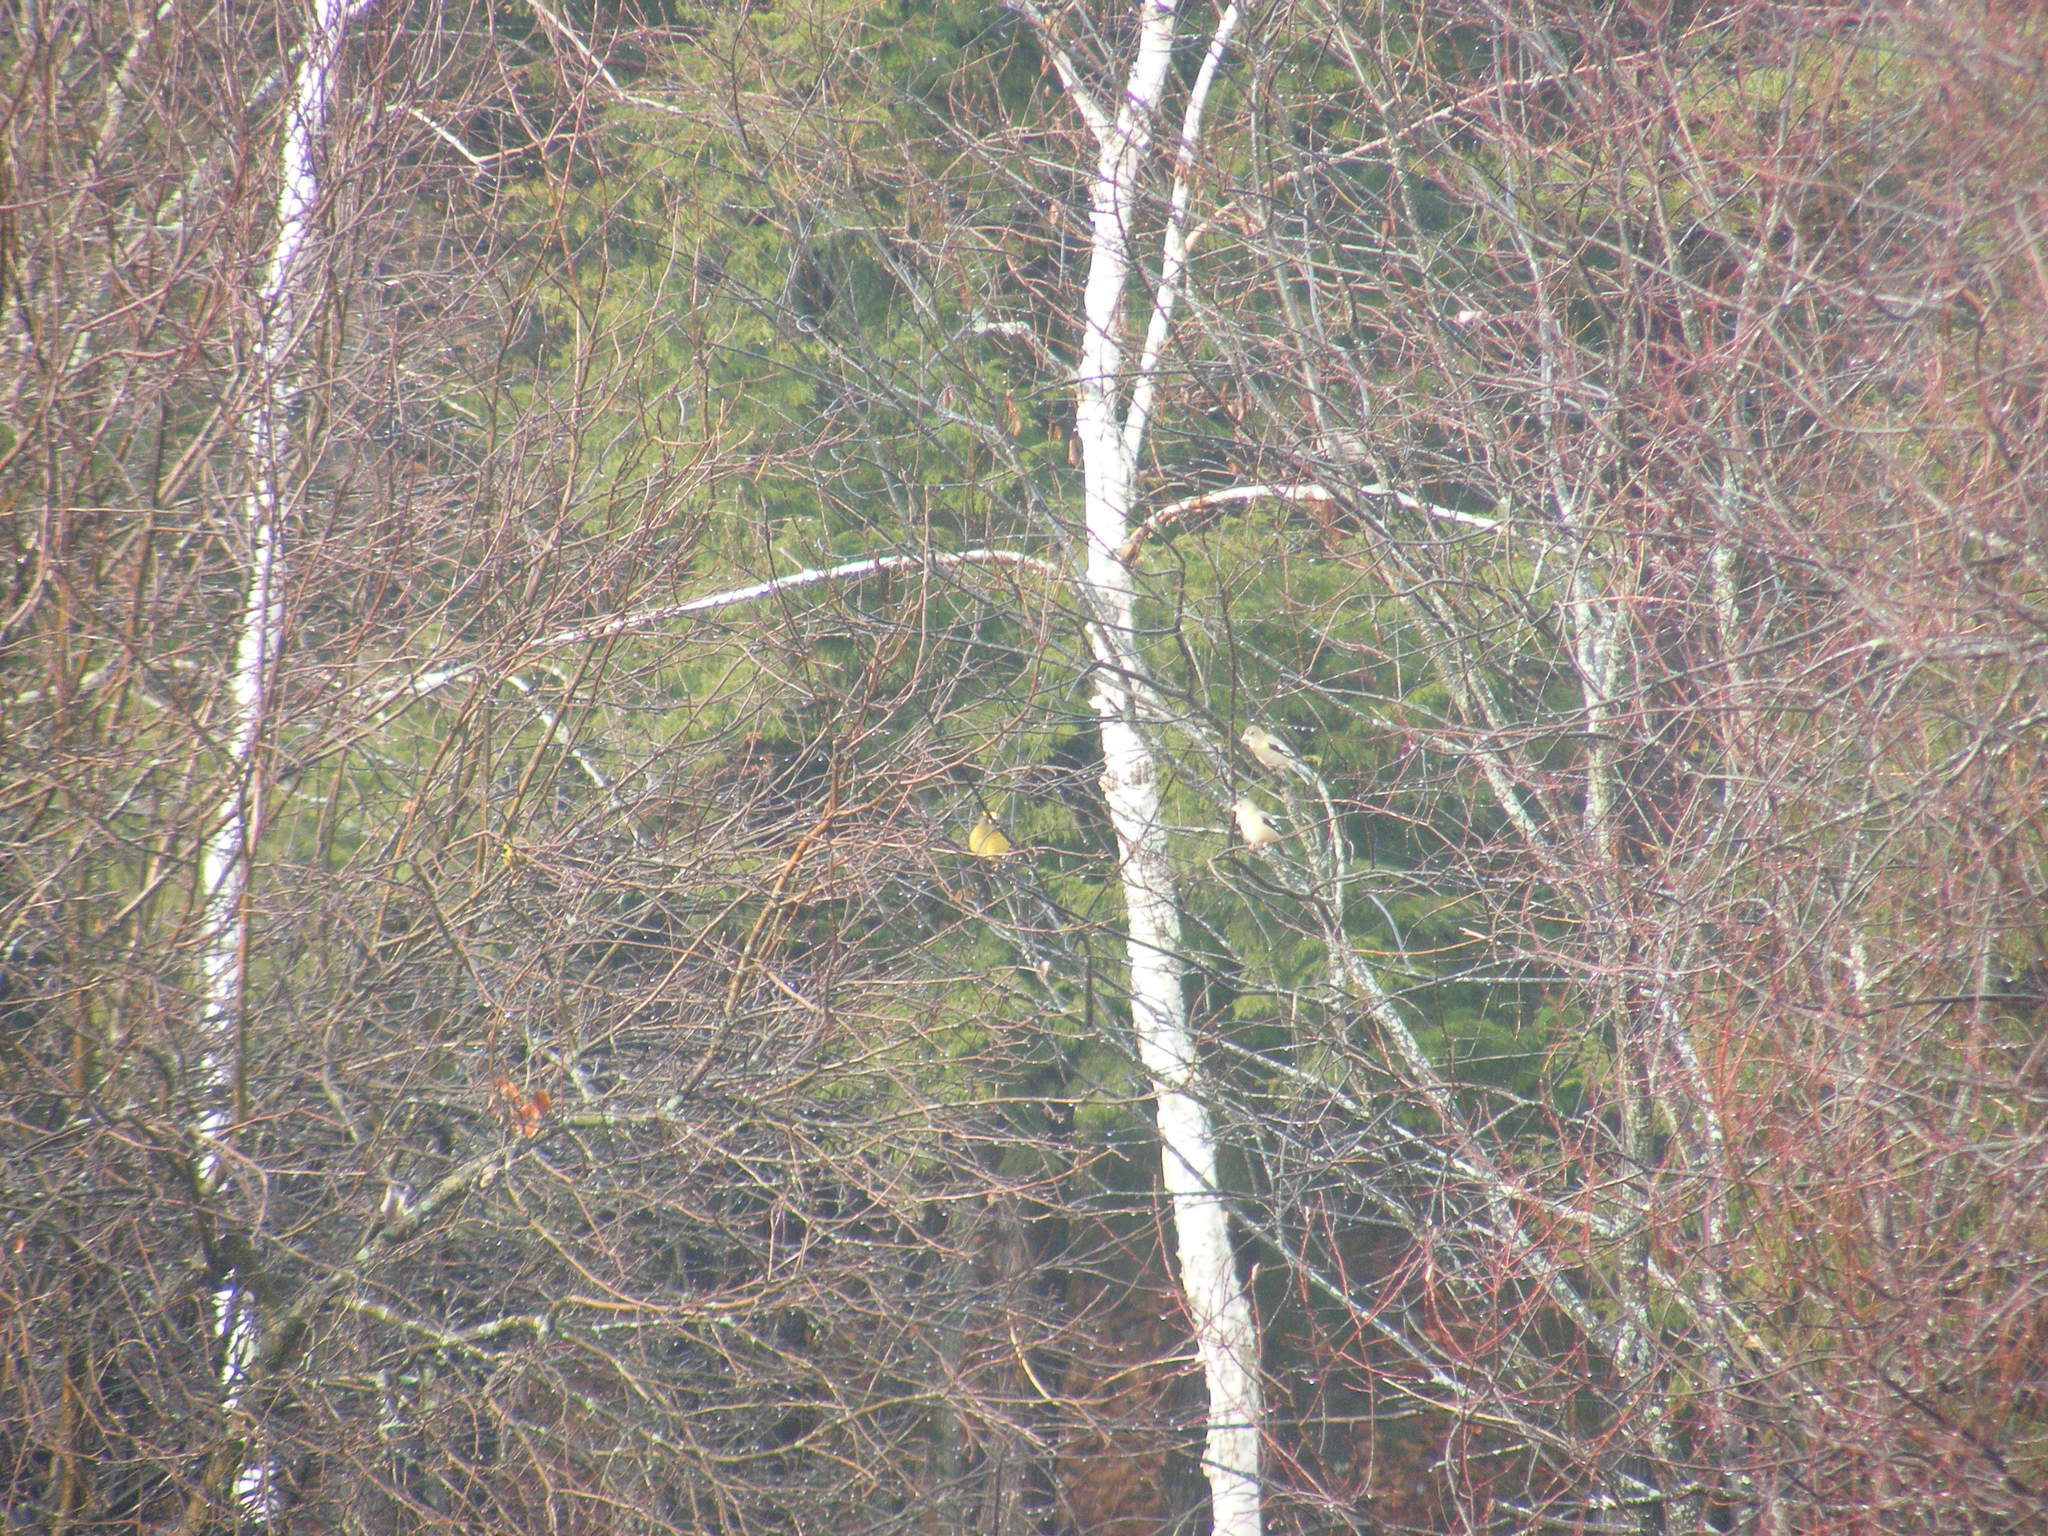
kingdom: Animalia
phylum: Chordata
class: Aves
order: Passeriformes
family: Fringillidae
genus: Hesperiphona
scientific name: Hesperiphona vespertina
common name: Evening grosbeak
